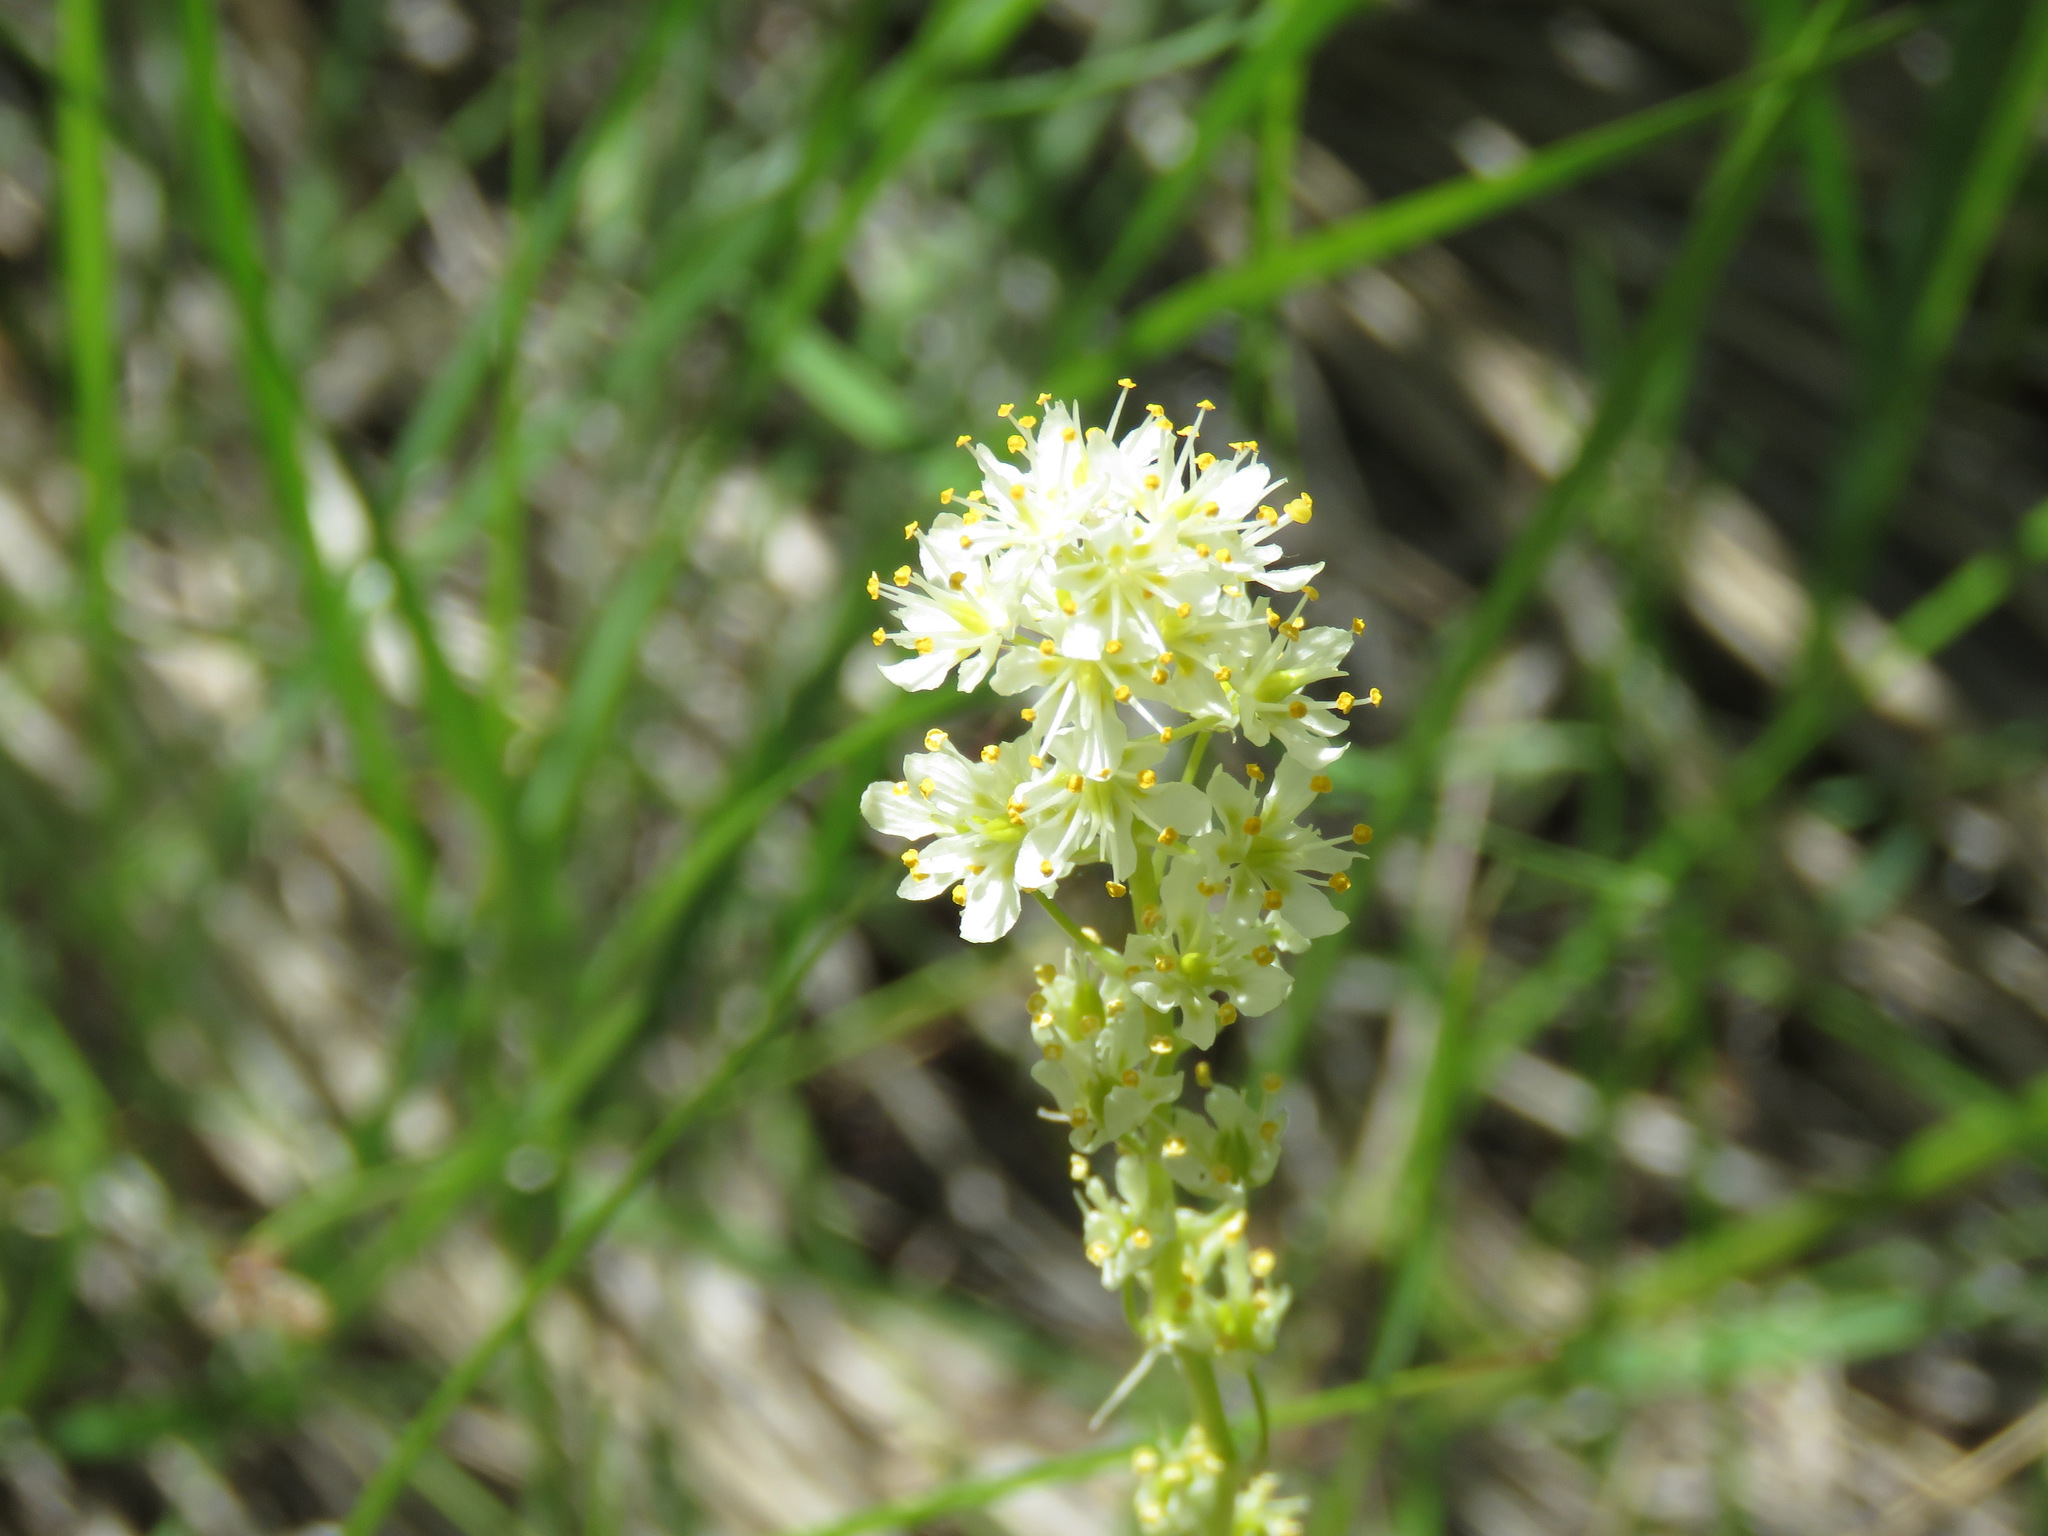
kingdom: Plantae
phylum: Tracheophyta
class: Liliopsida
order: Liliales
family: Melanthiaceae
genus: Toxicoscordion
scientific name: Toxicoscordion venenosum
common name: Meadow death camas
